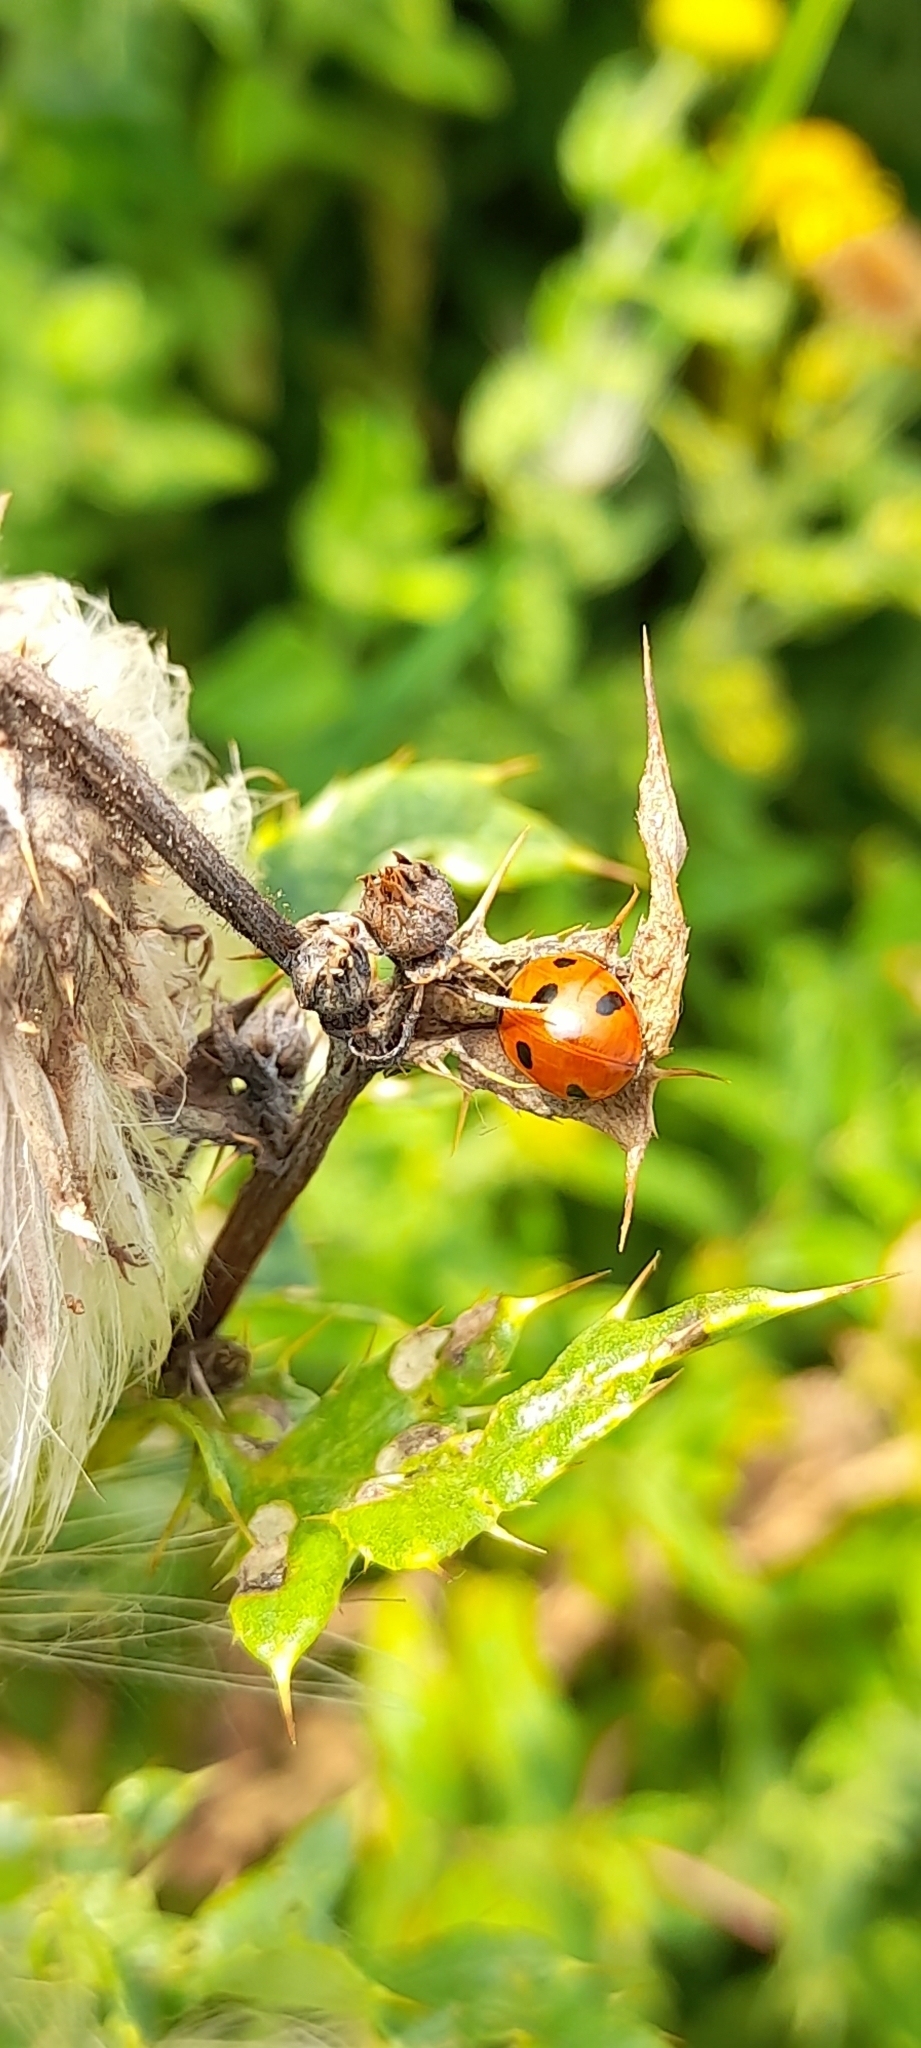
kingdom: Animalia
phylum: Arthropoda
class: Insecta
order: Coleoptera
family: Coccinellidae
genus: Coccinella
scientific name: Coccinella septempunctata
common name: Sevenspotted lady beetle
